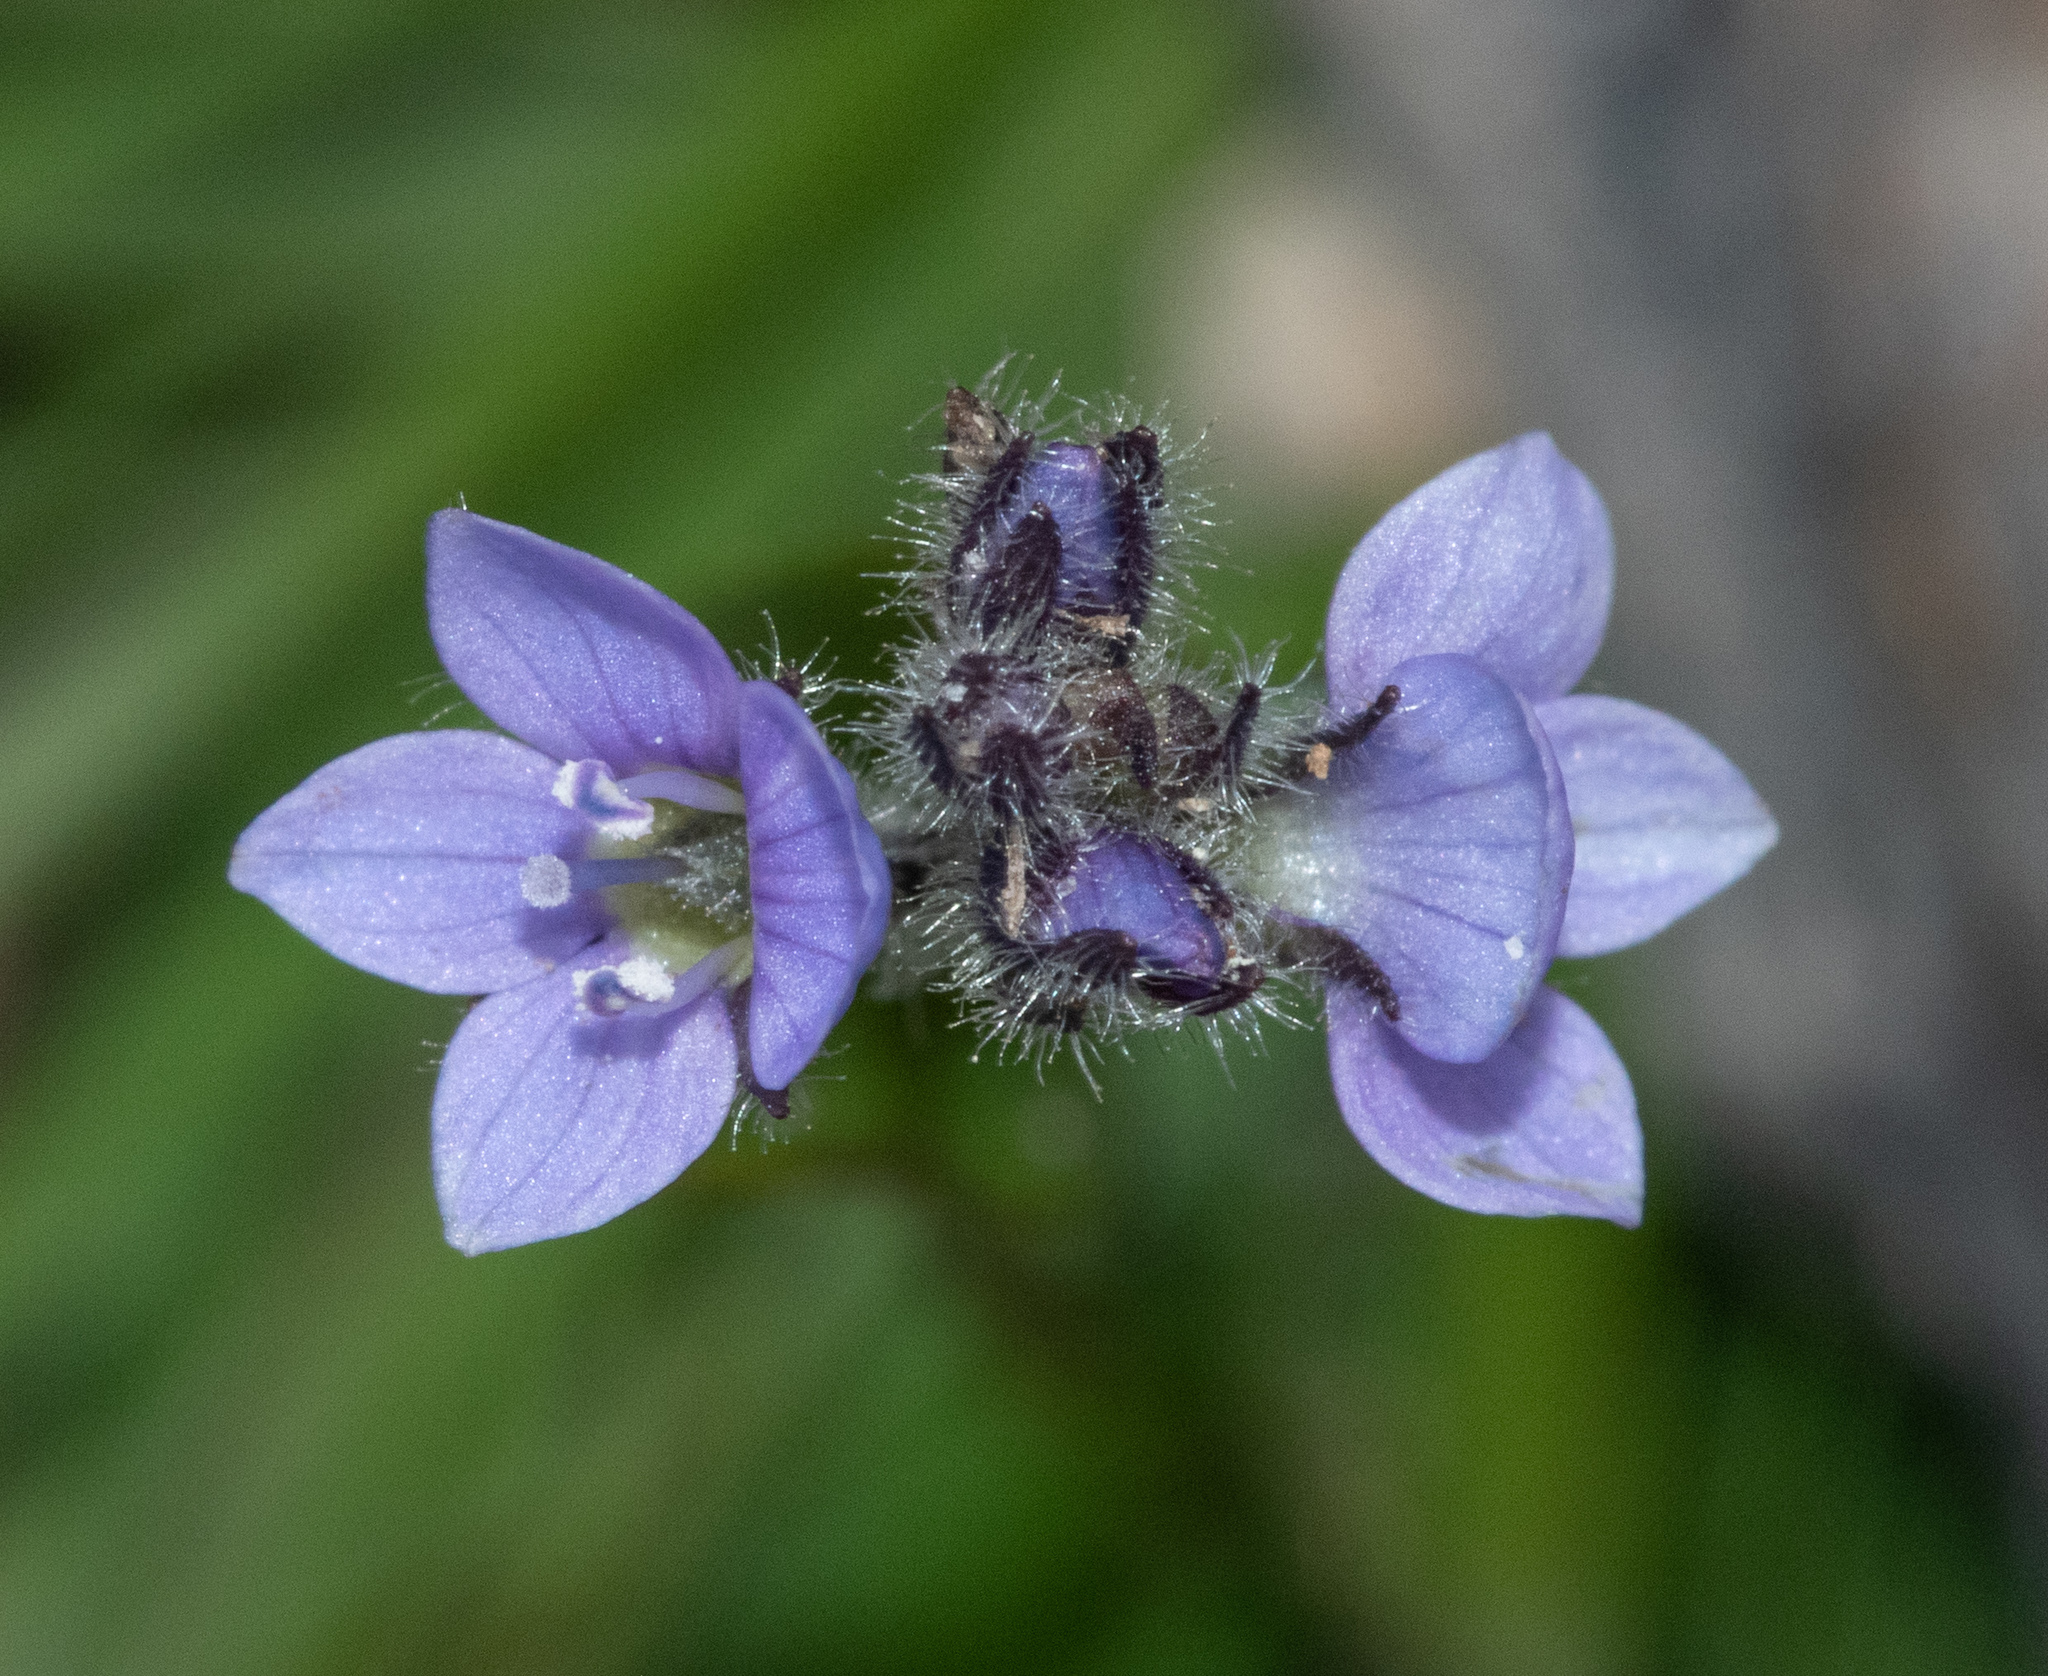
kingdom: Plantae
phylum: Tracheophyta
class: Magnoliopsida
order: Lamiales
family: Plantaginaceae
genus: Veronica
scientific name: Veronica wormskjoldii
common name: American alpine speedwell
